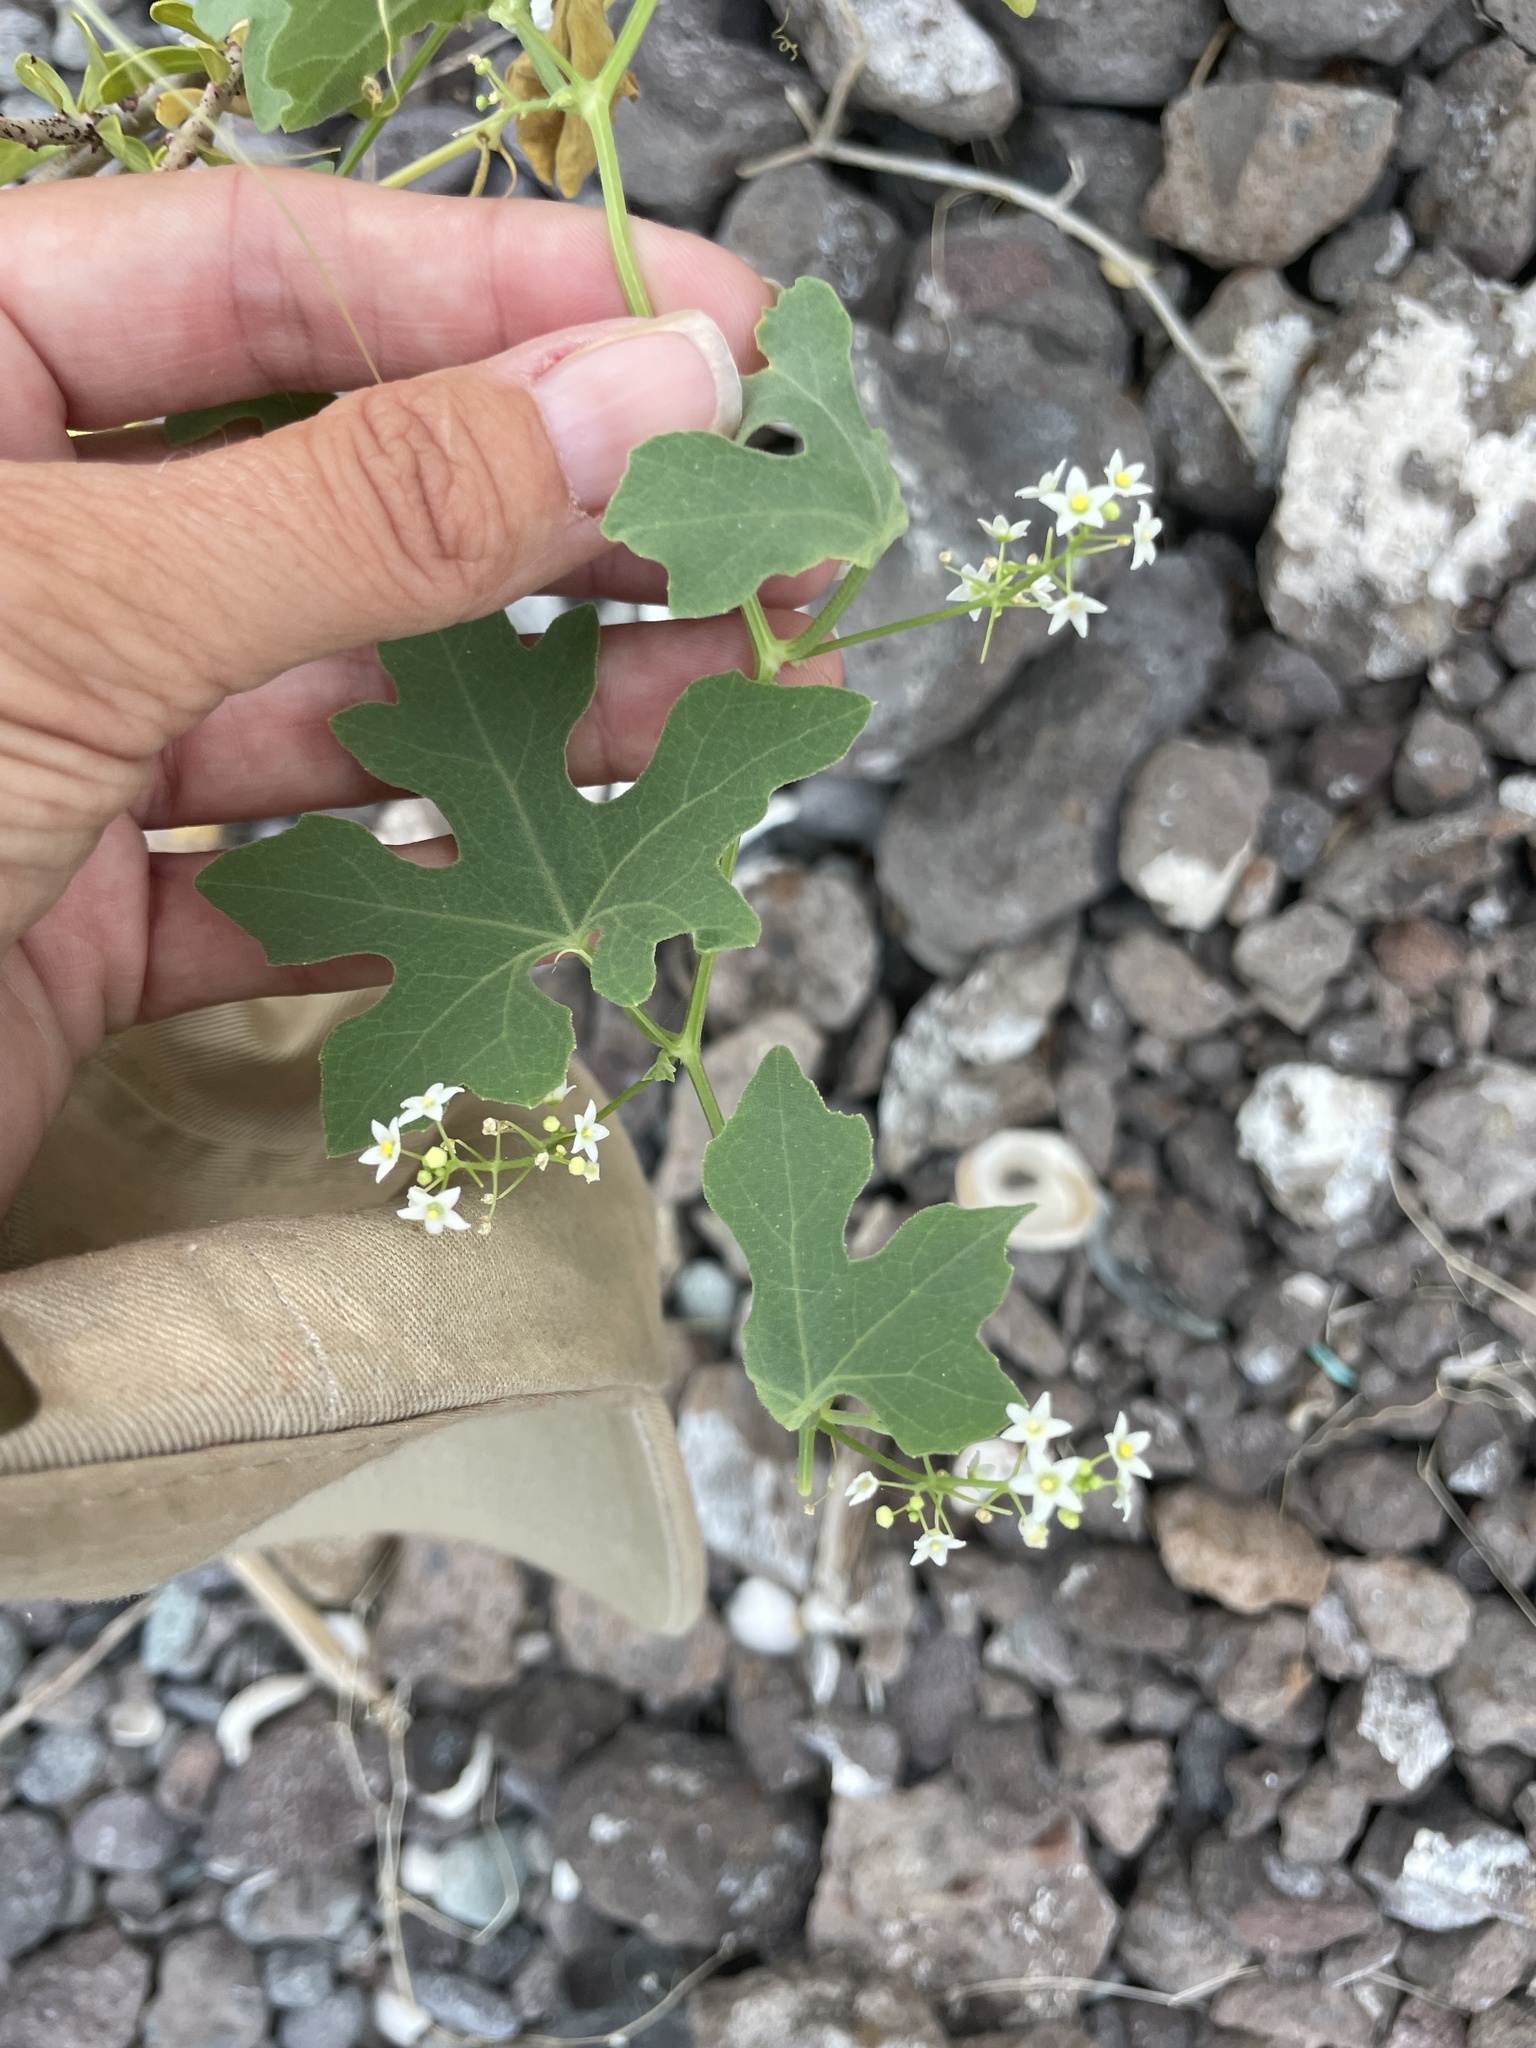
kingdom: Plantae
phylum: Tracheophyta
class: Magnoliopsida
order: Cucurbitales
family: Cucurbitaceae
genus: Echinopepon
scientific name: Echinopepon insularis
